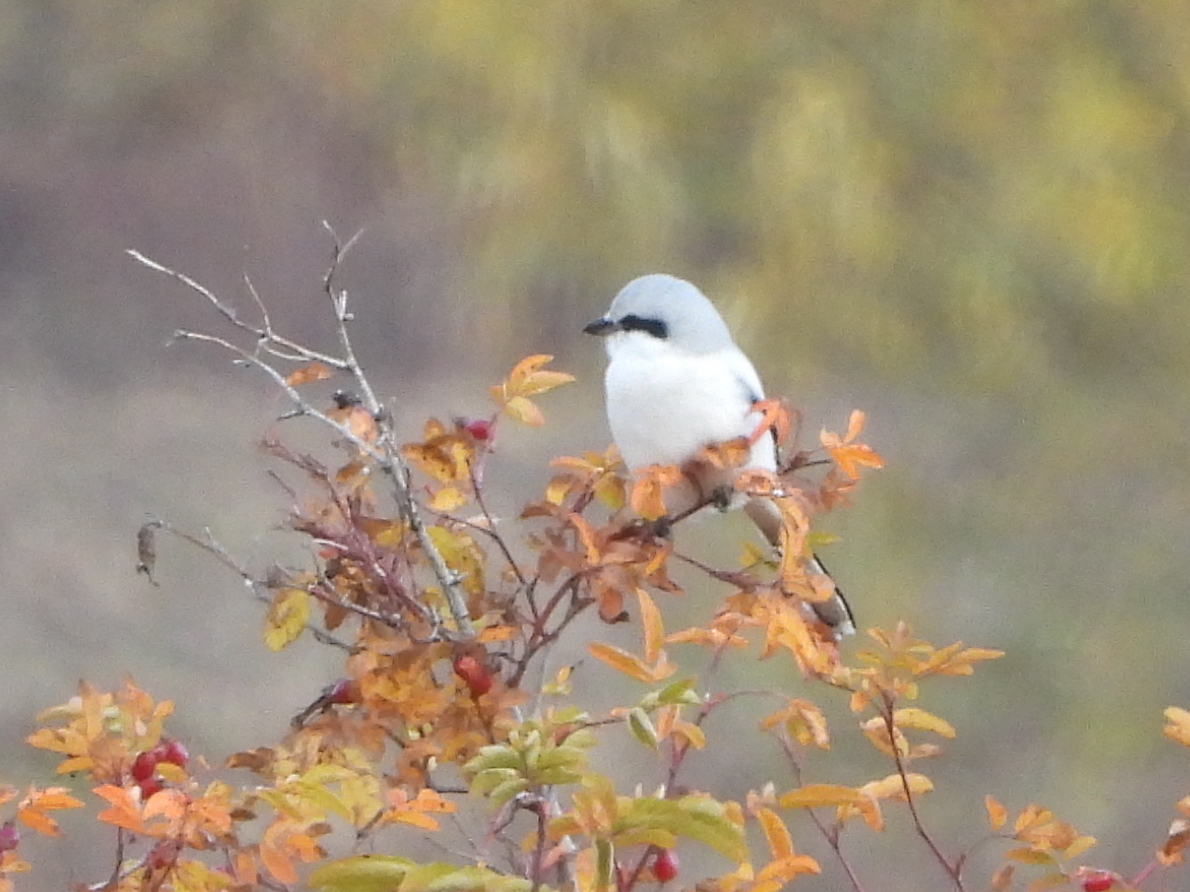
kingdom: Animalia
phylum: Chordata
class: Aves
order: Passeriformes
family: Laniidae
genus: Lanius
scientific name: Lanius excubitor
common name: Great grey shrike
